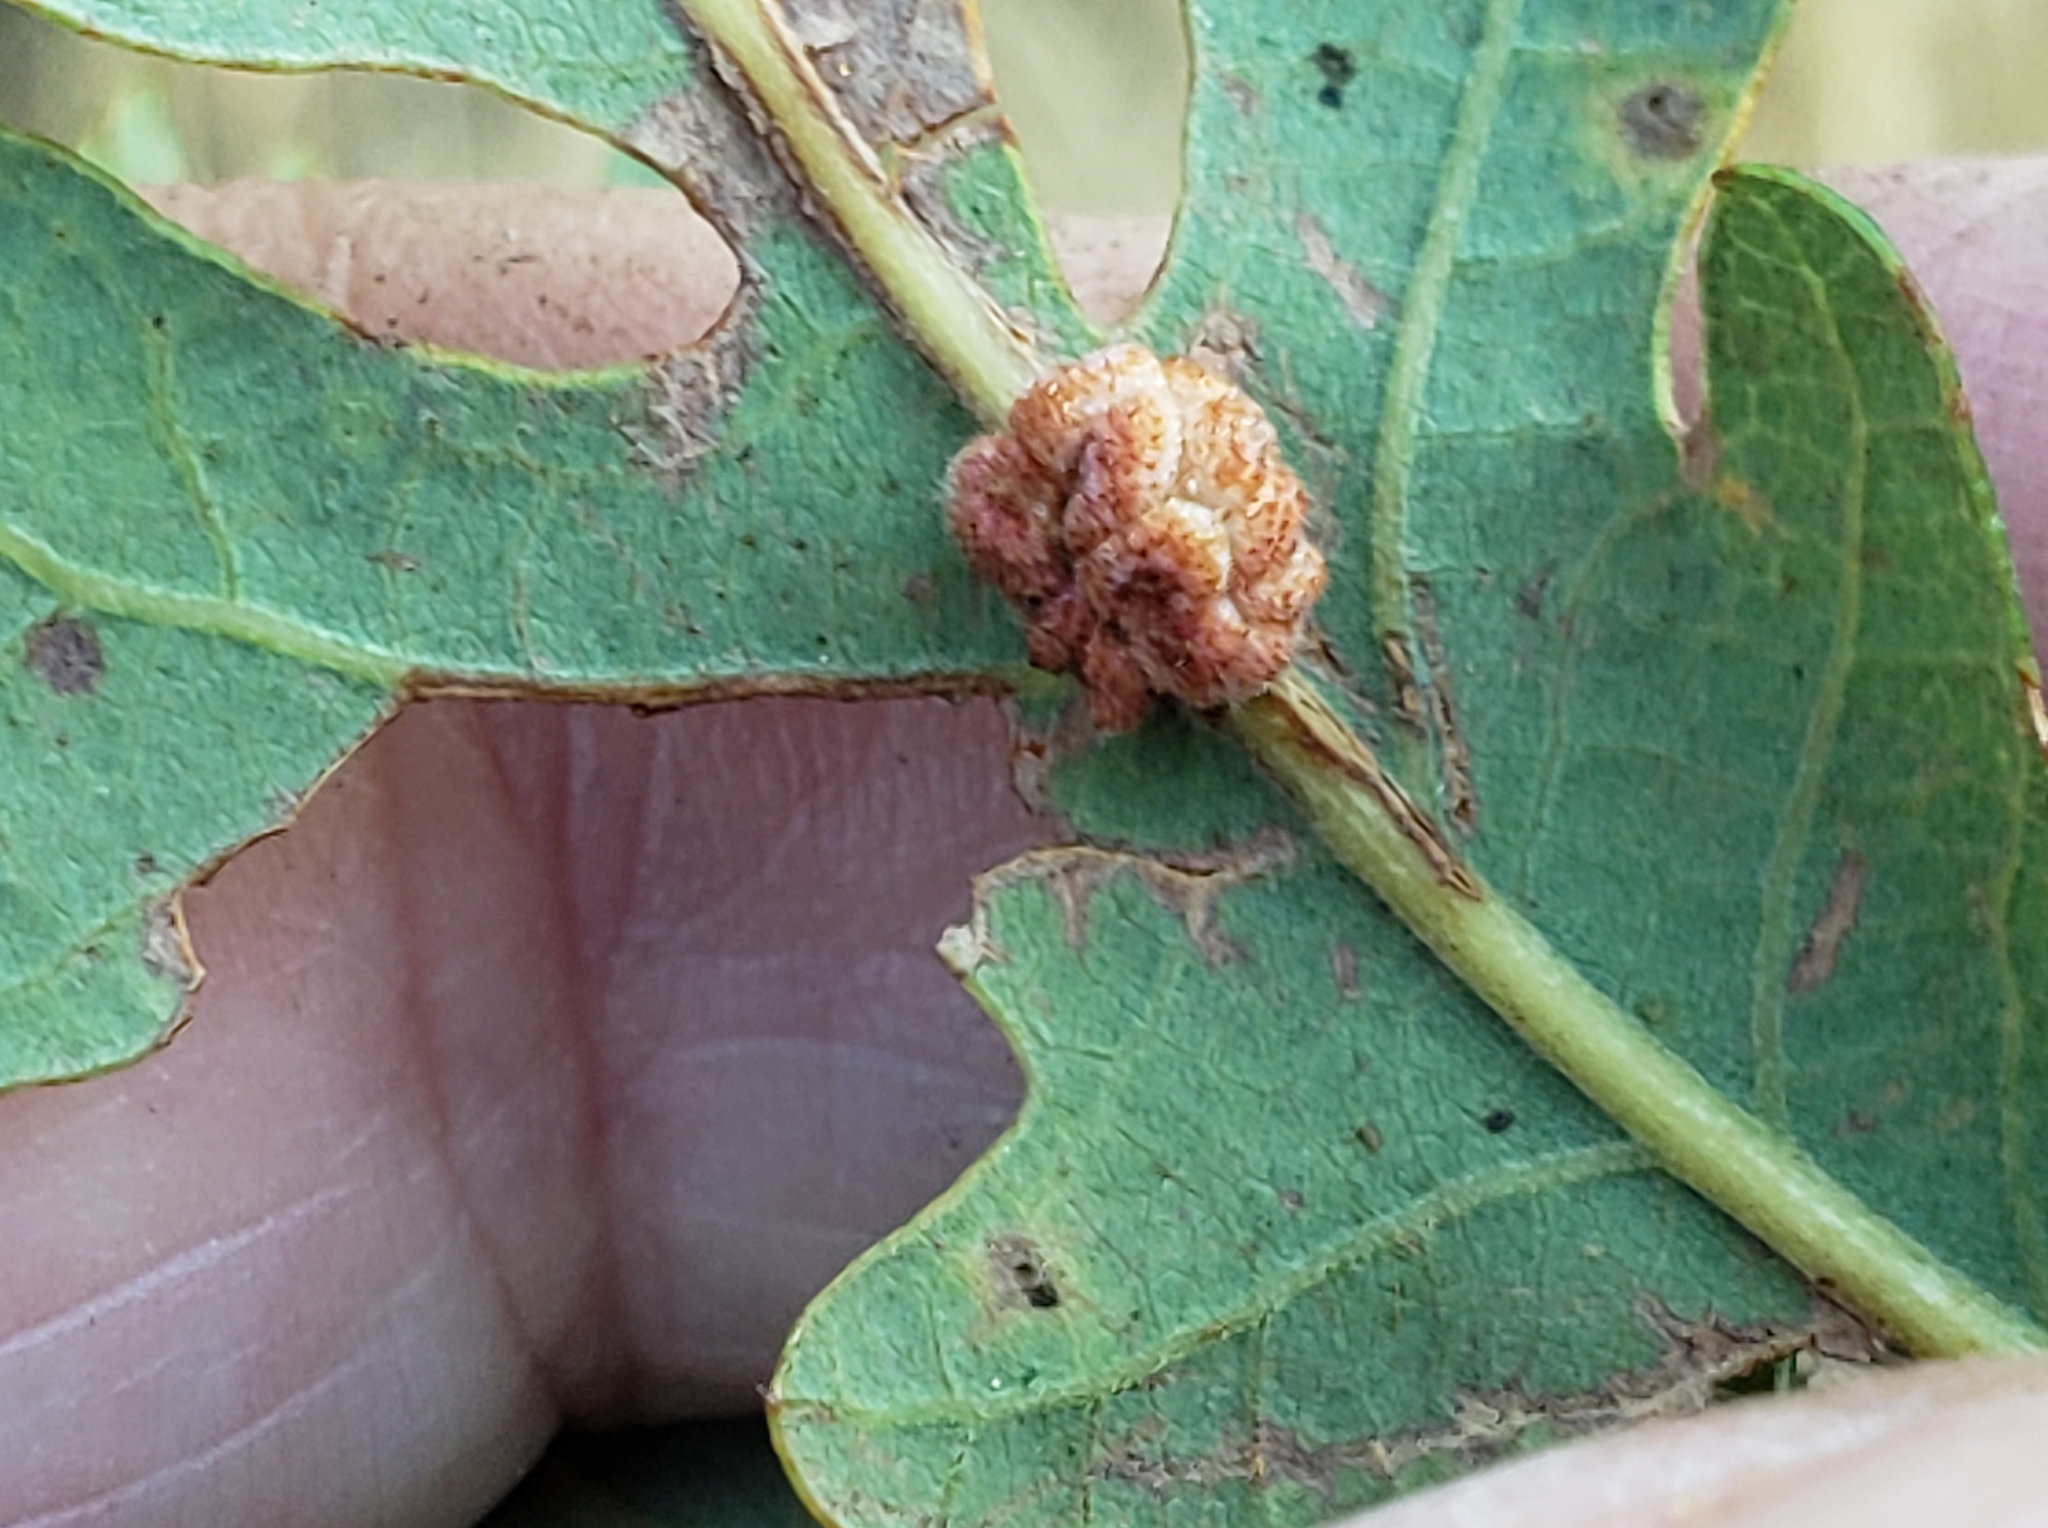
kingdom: Animalia
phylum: Arthropoda
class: Insecta
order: Hymenoptera
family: Cynipidae
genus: Andricus
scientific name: Andricus
